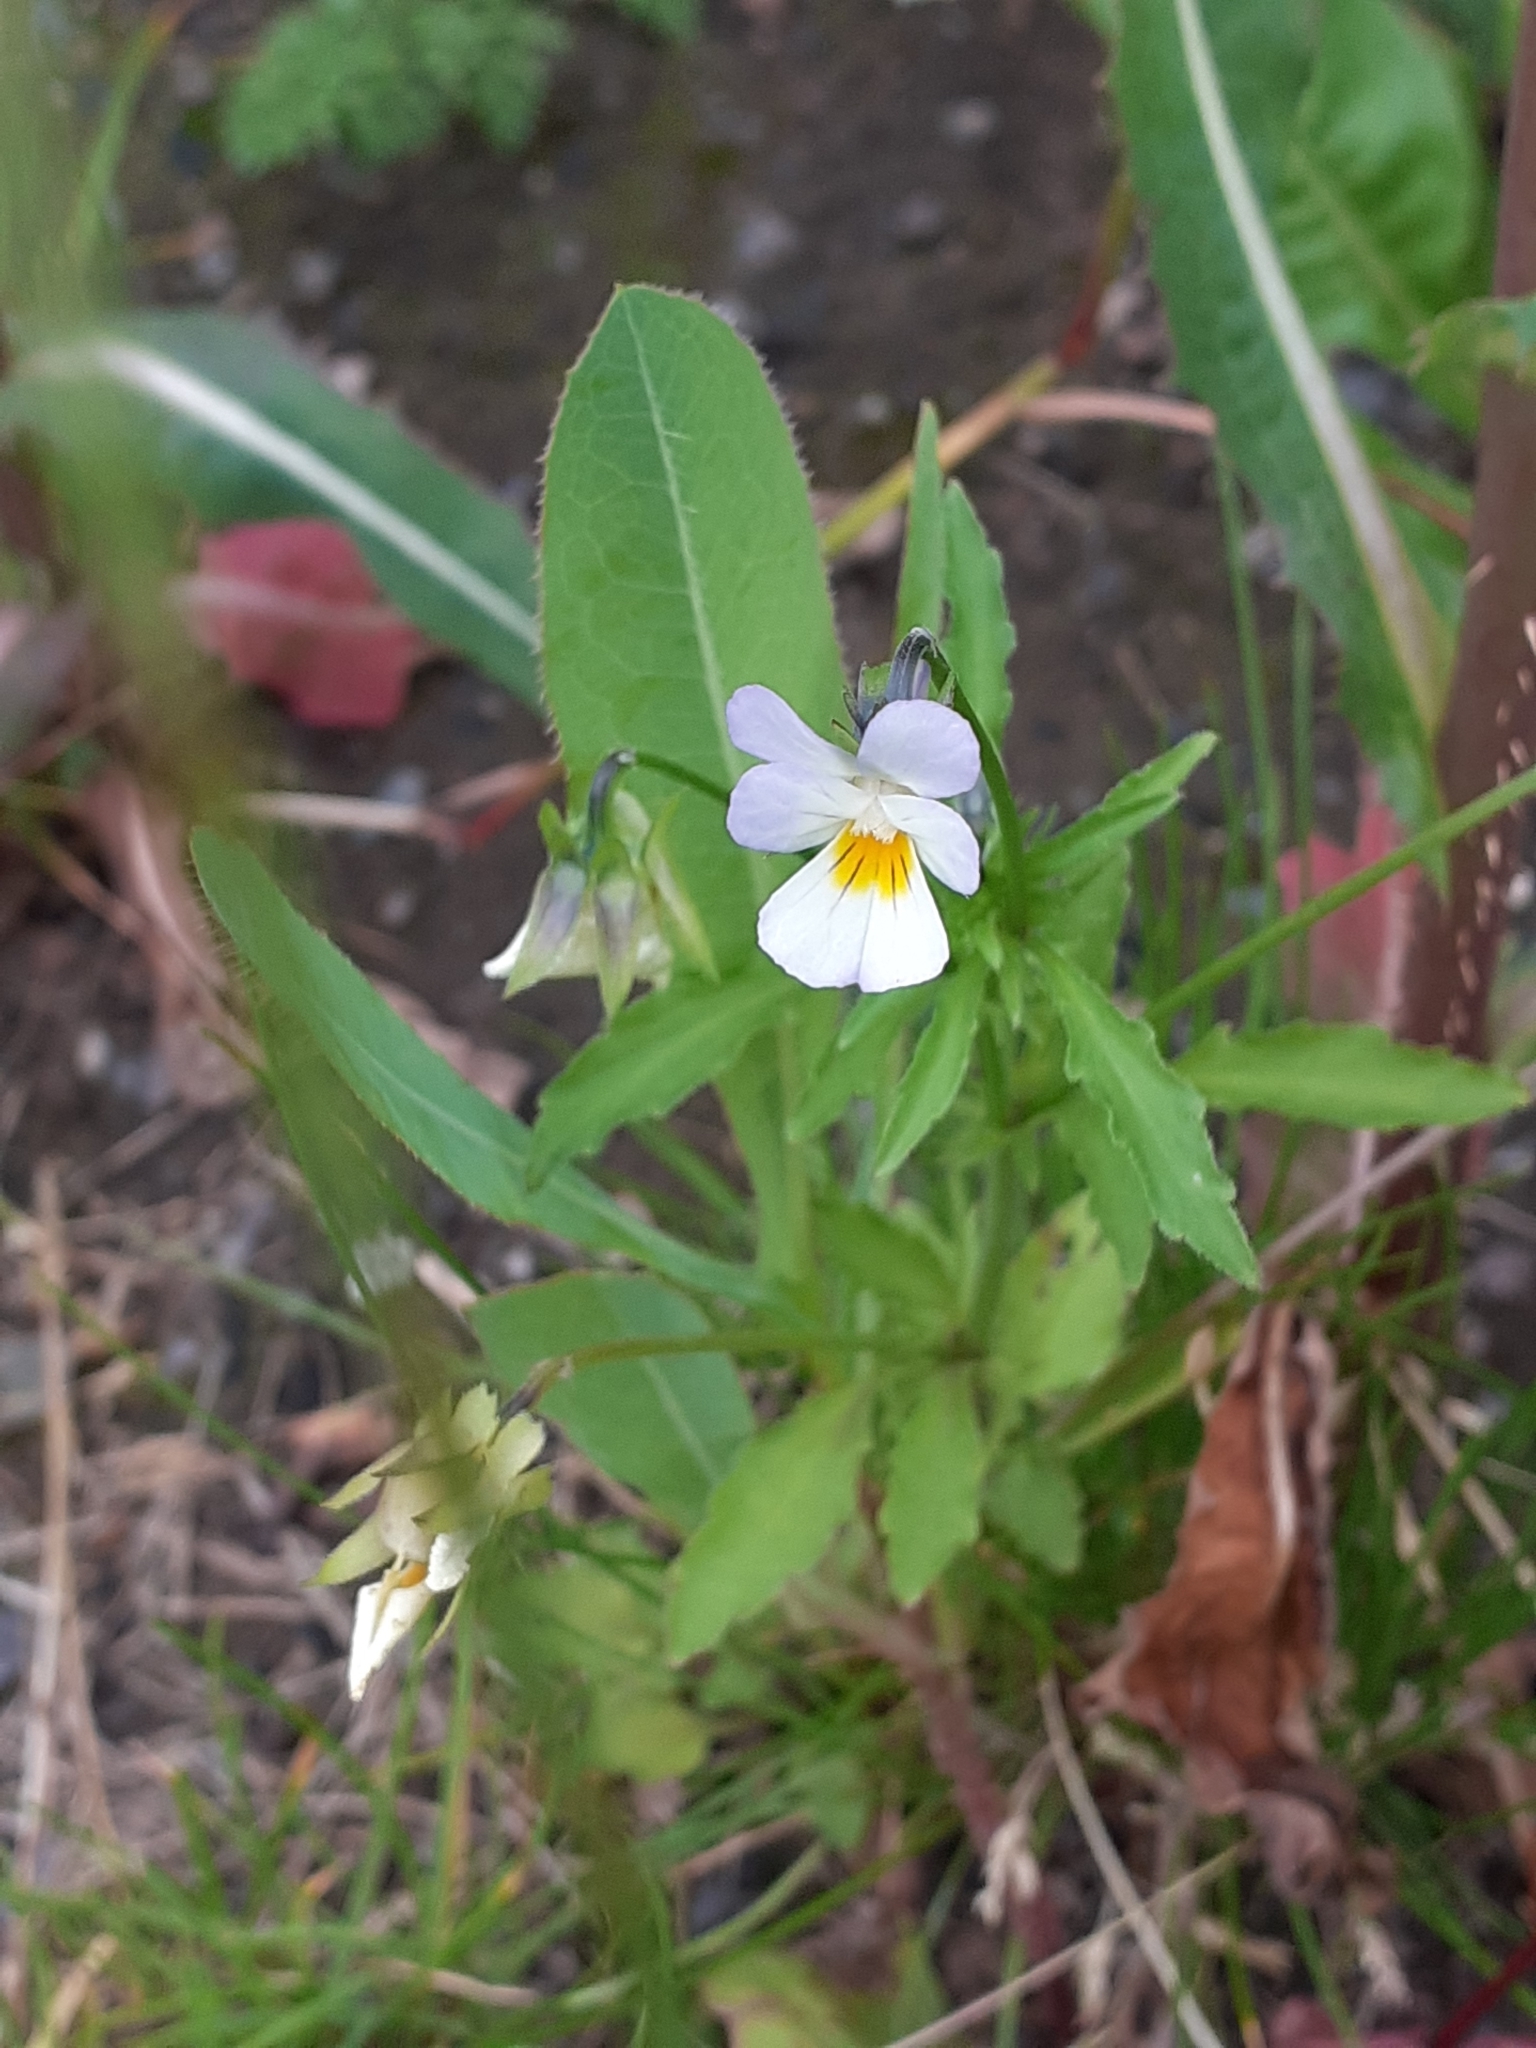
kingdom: Plantae
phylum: Tracheophyta
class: Magnoliopsida
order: Malpighiales
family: Violaceae
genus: Viola
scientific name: Viola arvensis
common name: Field pansy
